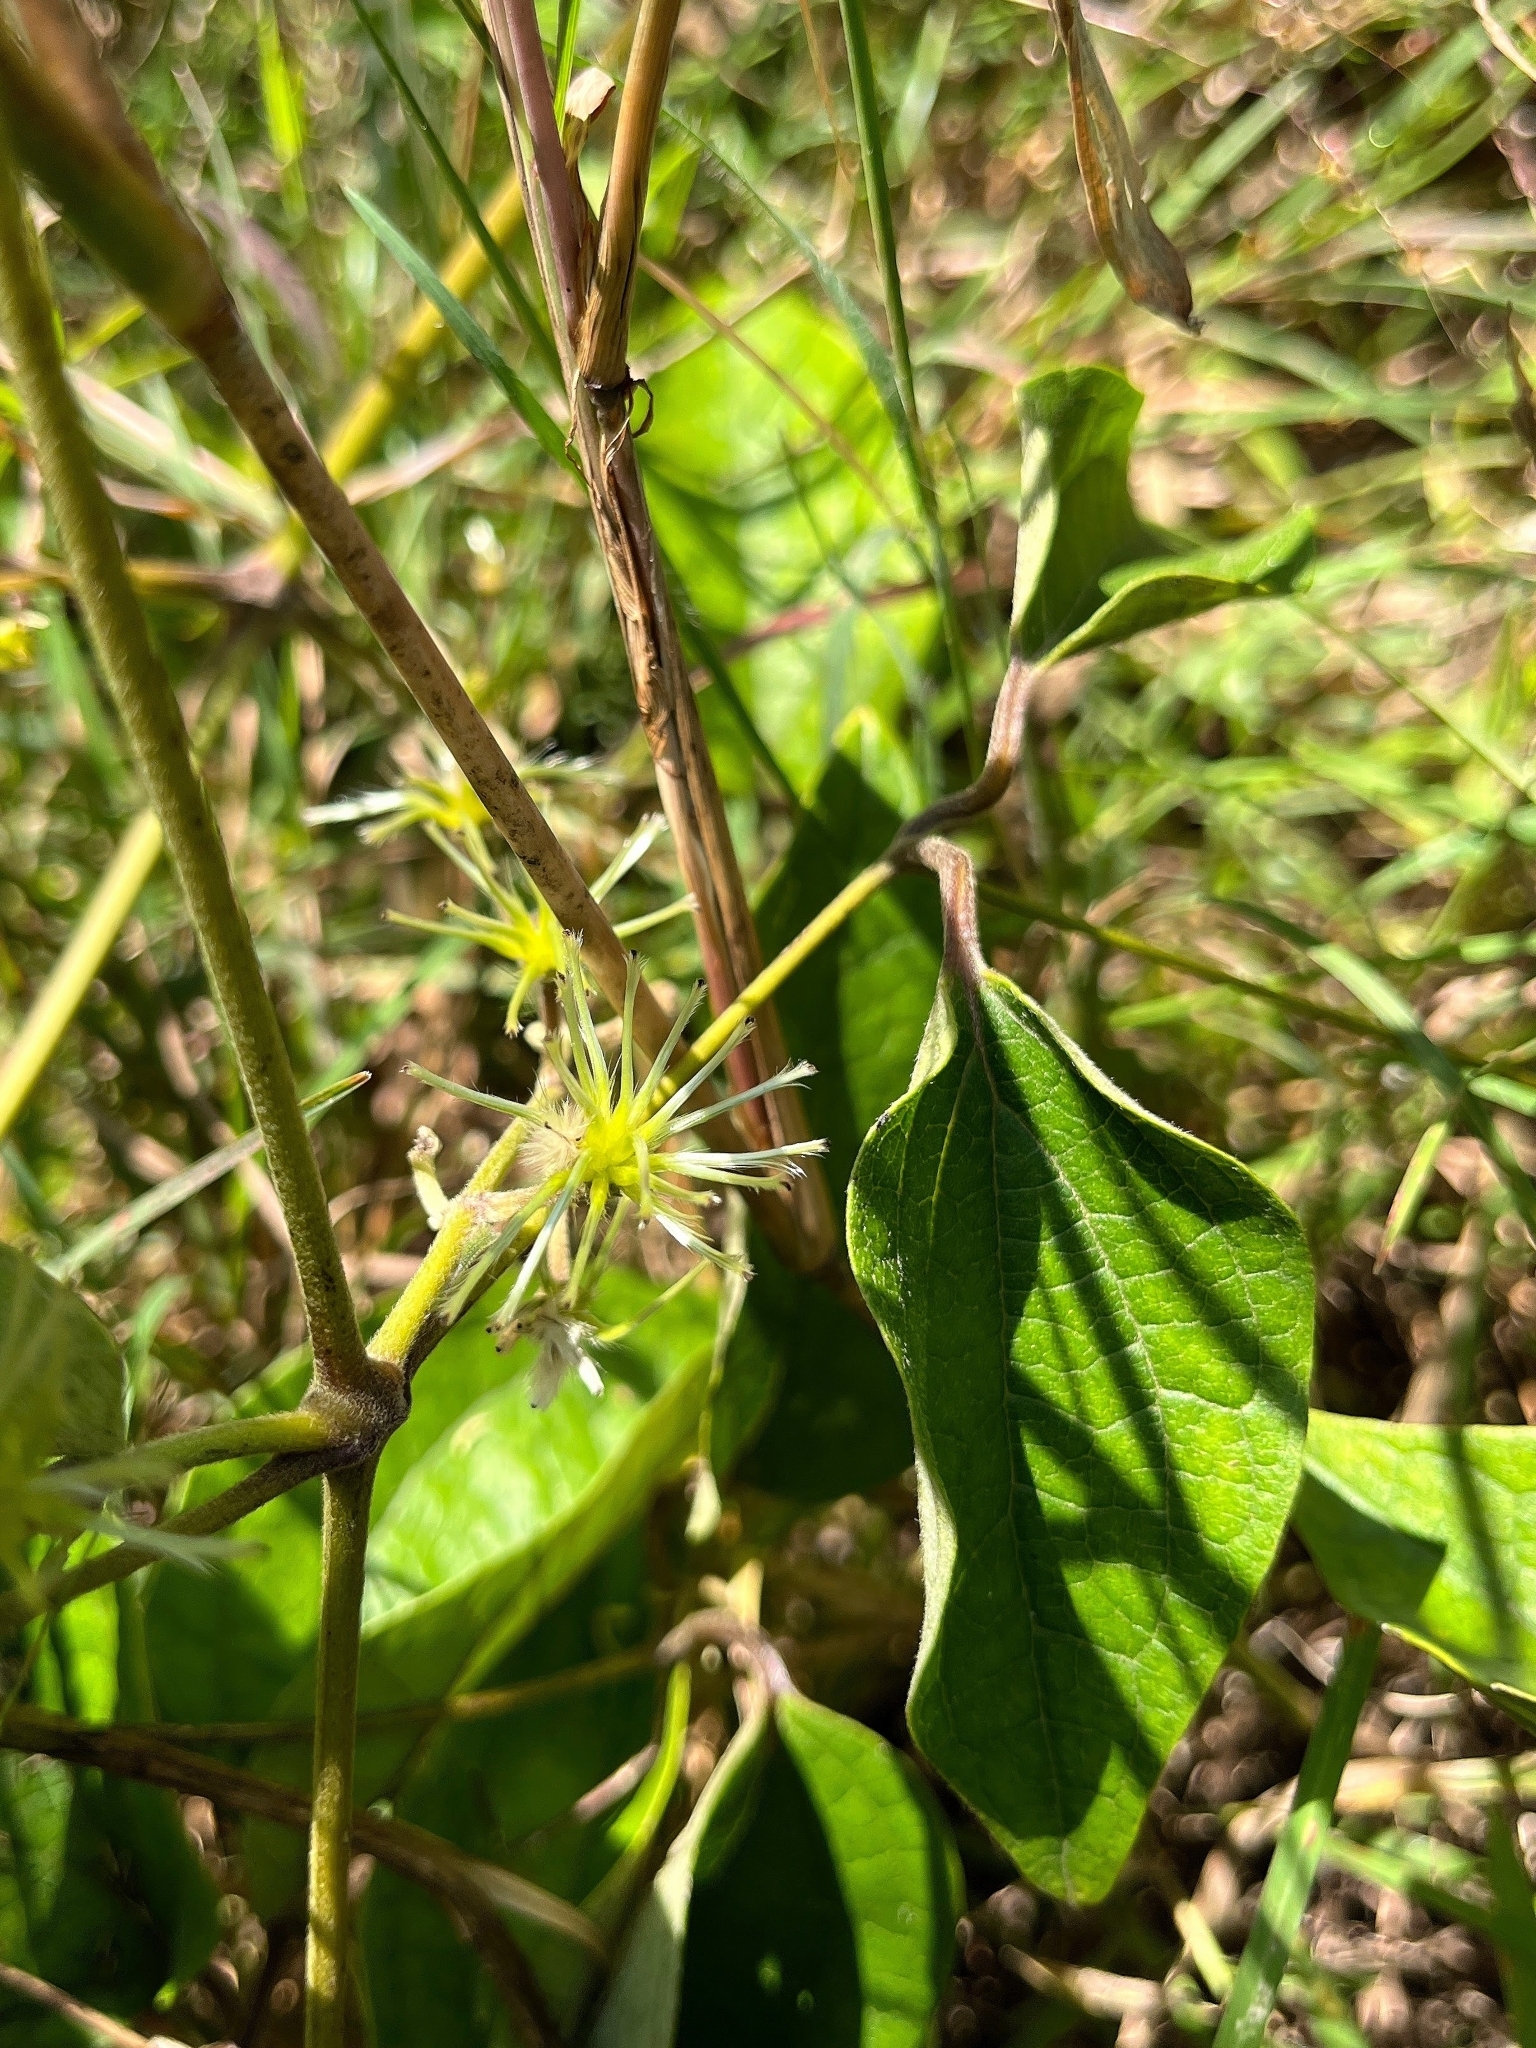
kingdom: Plantae
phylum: Tracheophyta
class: Magnoliopsida
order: Ranunculales
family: Ranunculaceae
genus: Clematis
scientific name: Clematis zeylanica
